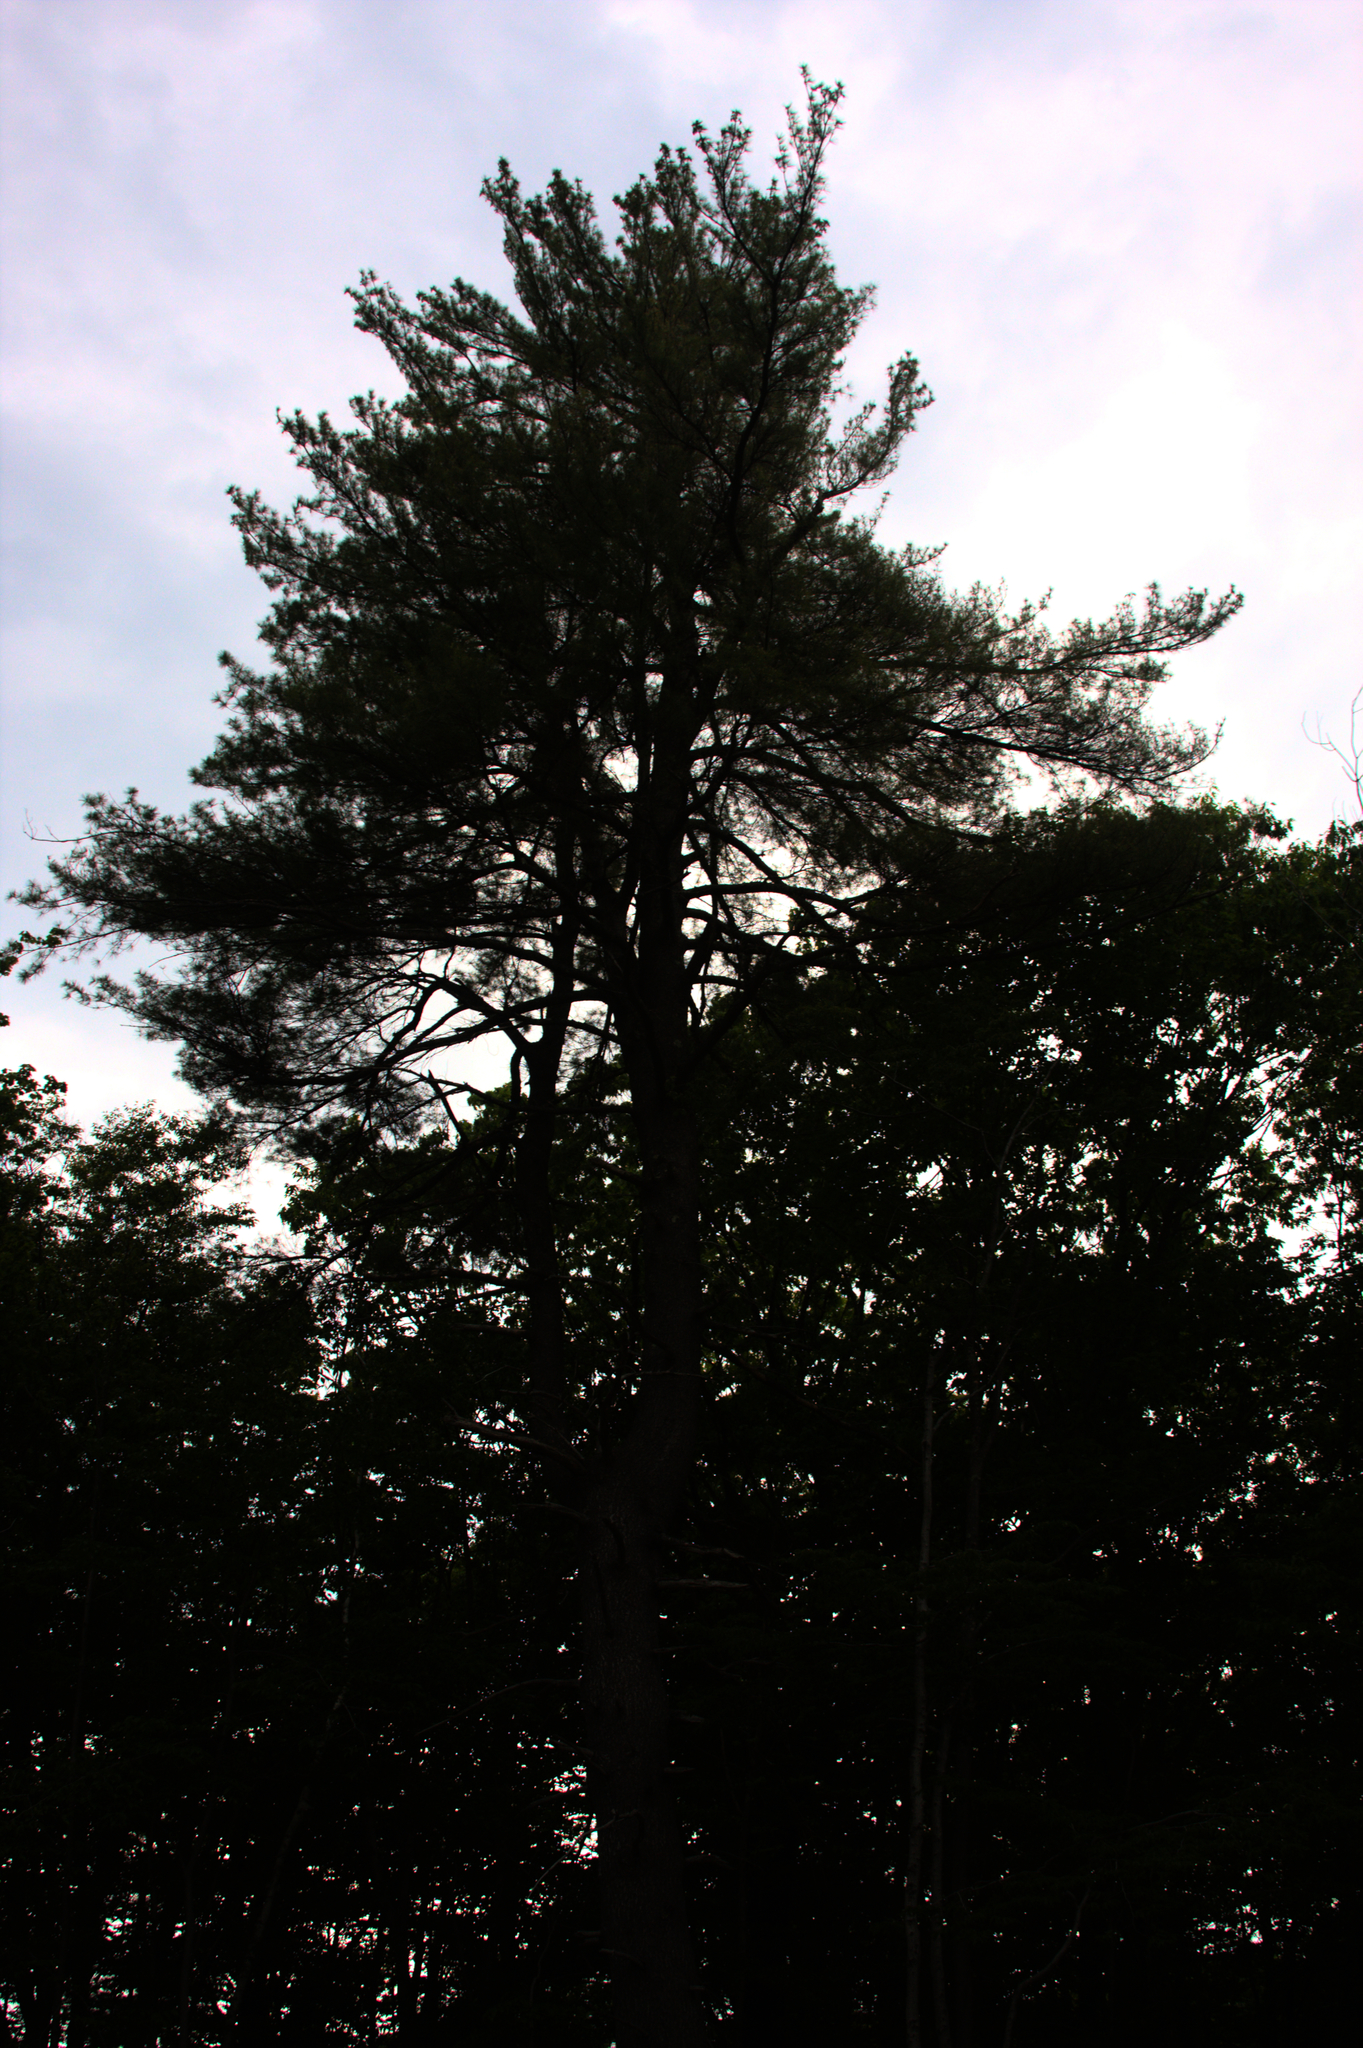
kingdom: Plantae
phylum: Tracheophyta
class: Pinopsida
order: Pinales
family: Pinaceae
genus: Pinus
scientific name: Pinus strobus
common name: Weymouth pine
